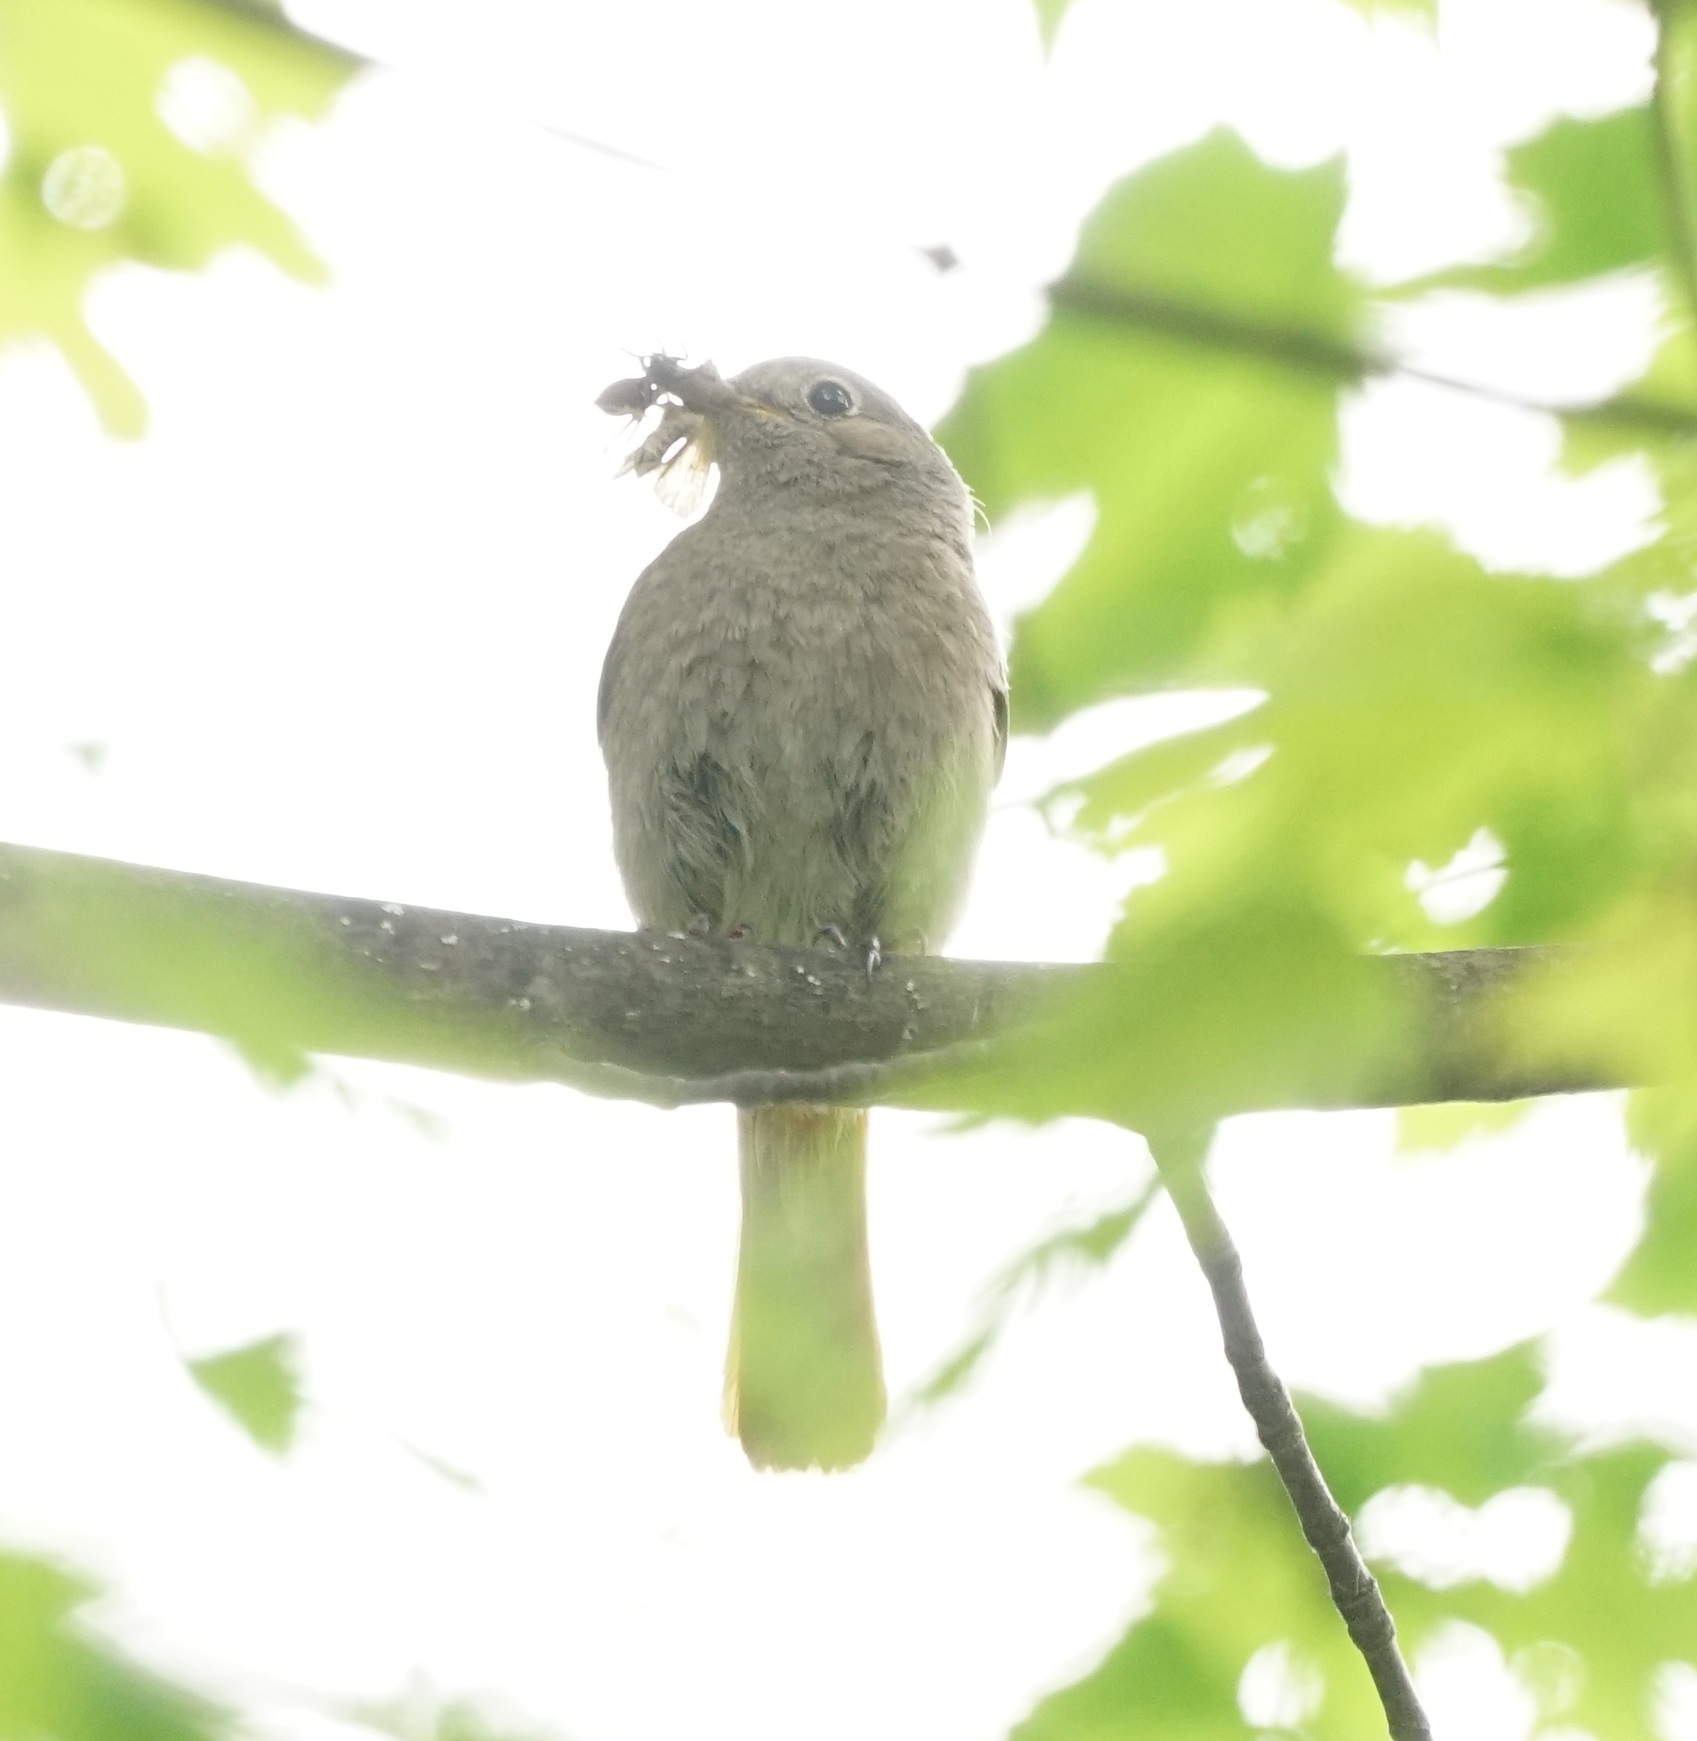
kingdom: Animalia
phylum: Chordata
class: Aves
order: Passeriformes
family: Muscicapidae
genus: Phoenicurus
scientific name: Phoenicurus ochruros
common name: Black redstart
